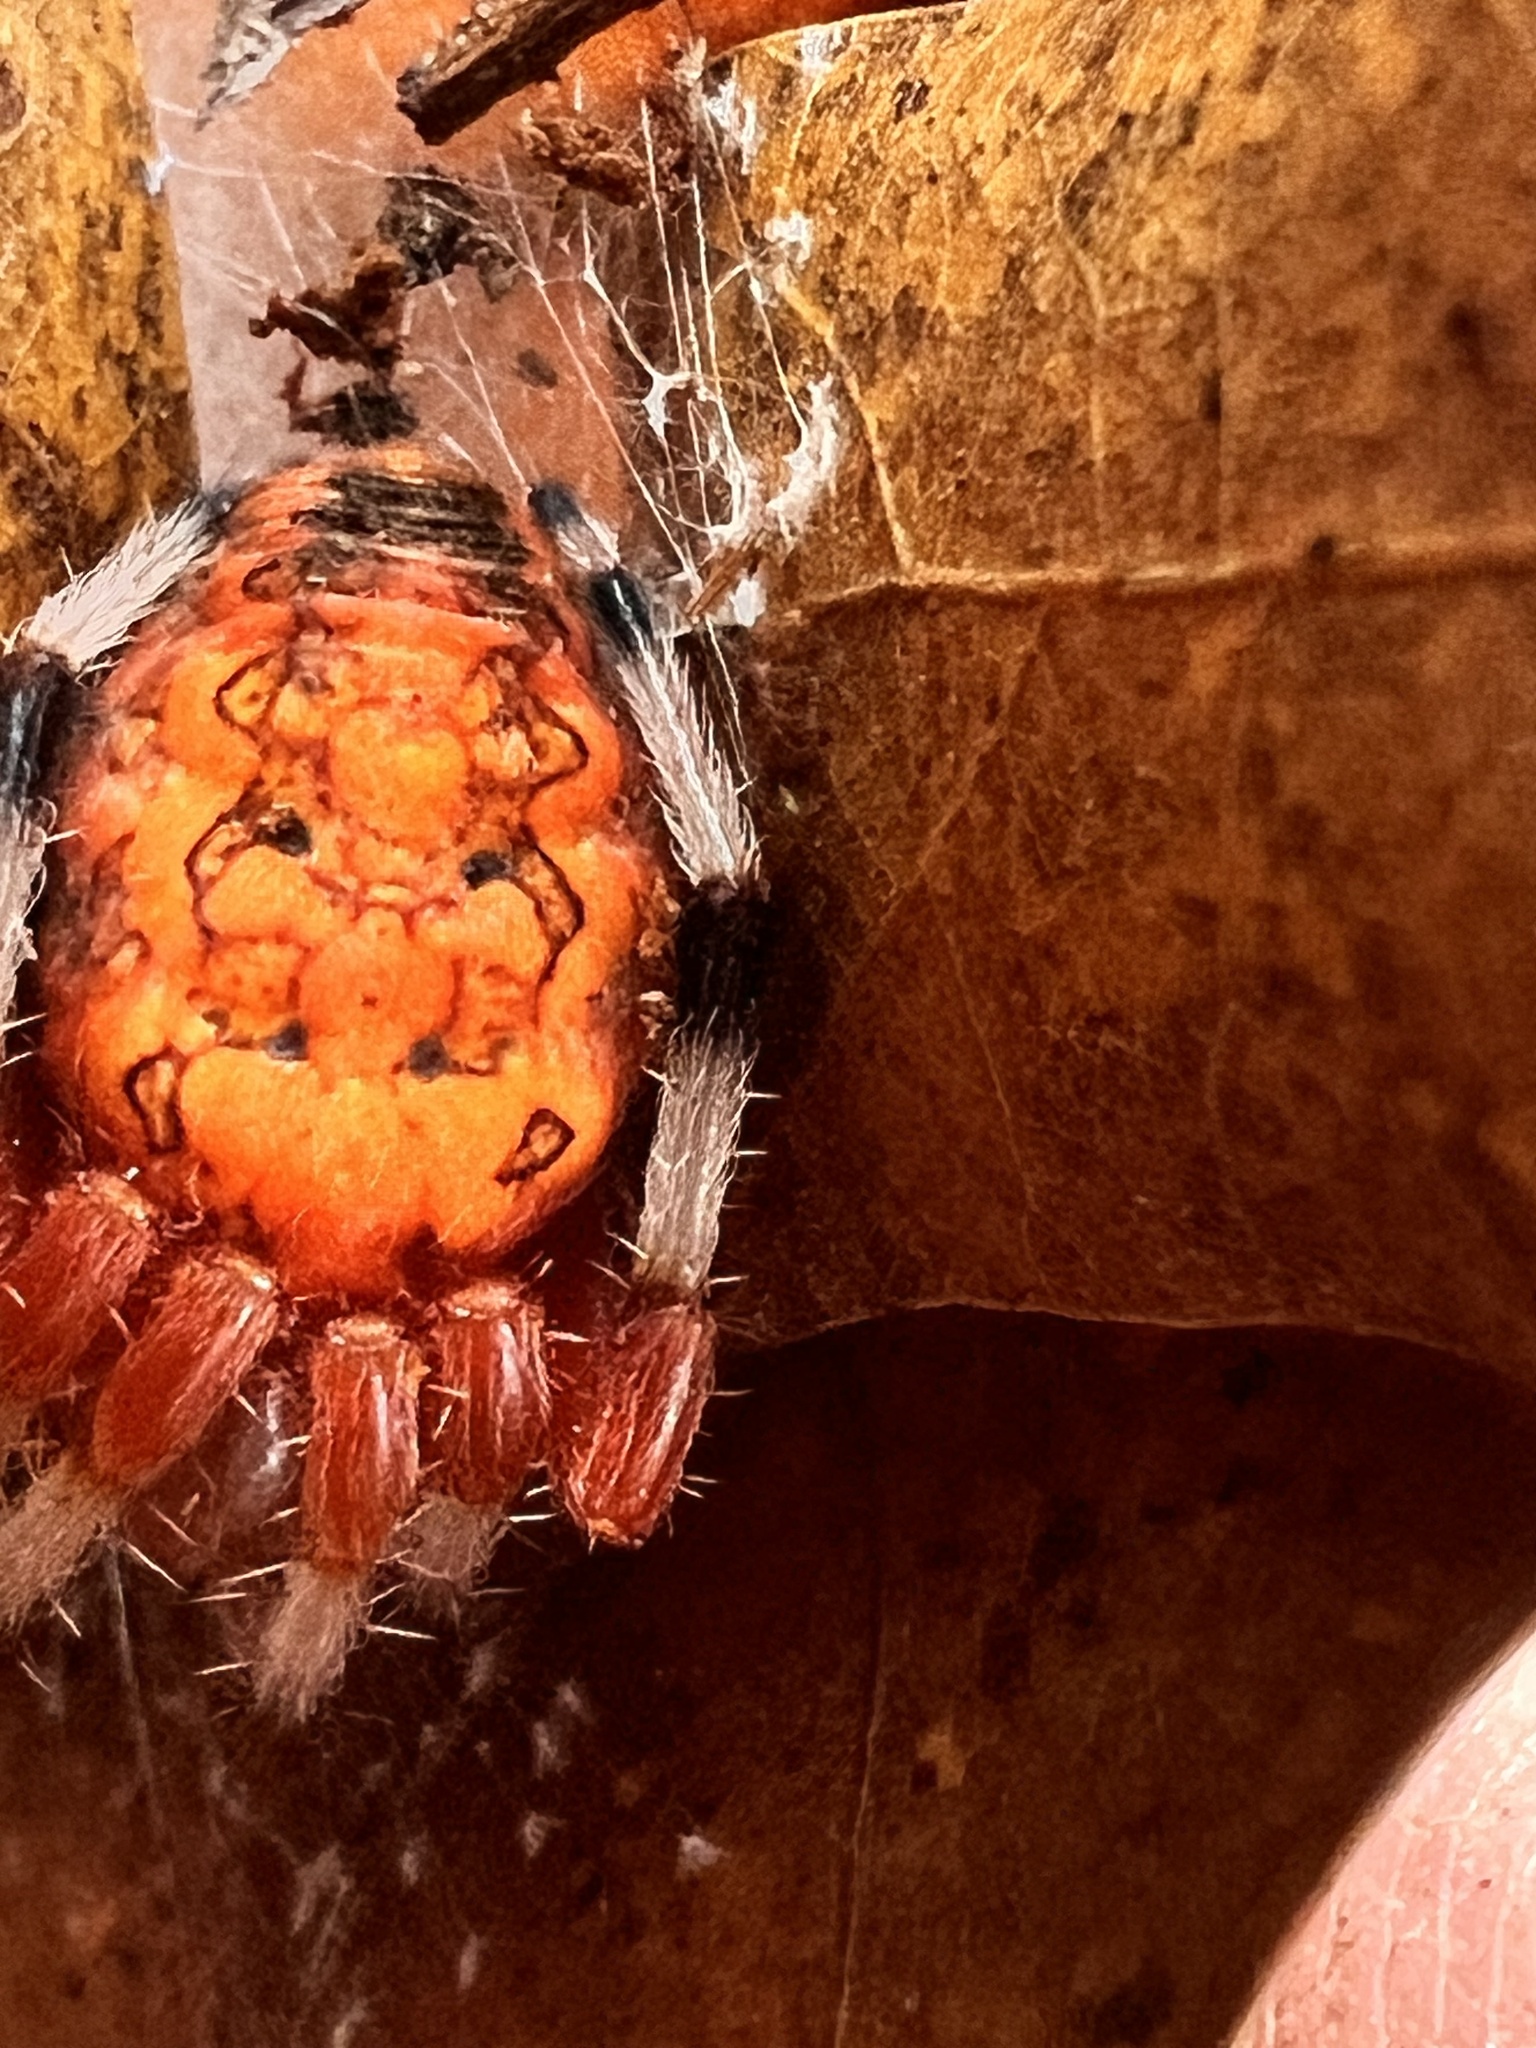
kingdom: Animalia
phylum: Arthropoda
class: Arachnida
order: Araneae
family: Araneidae
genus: Araneus
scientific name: Araneus marmoreus
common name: Marbled orbweaver
